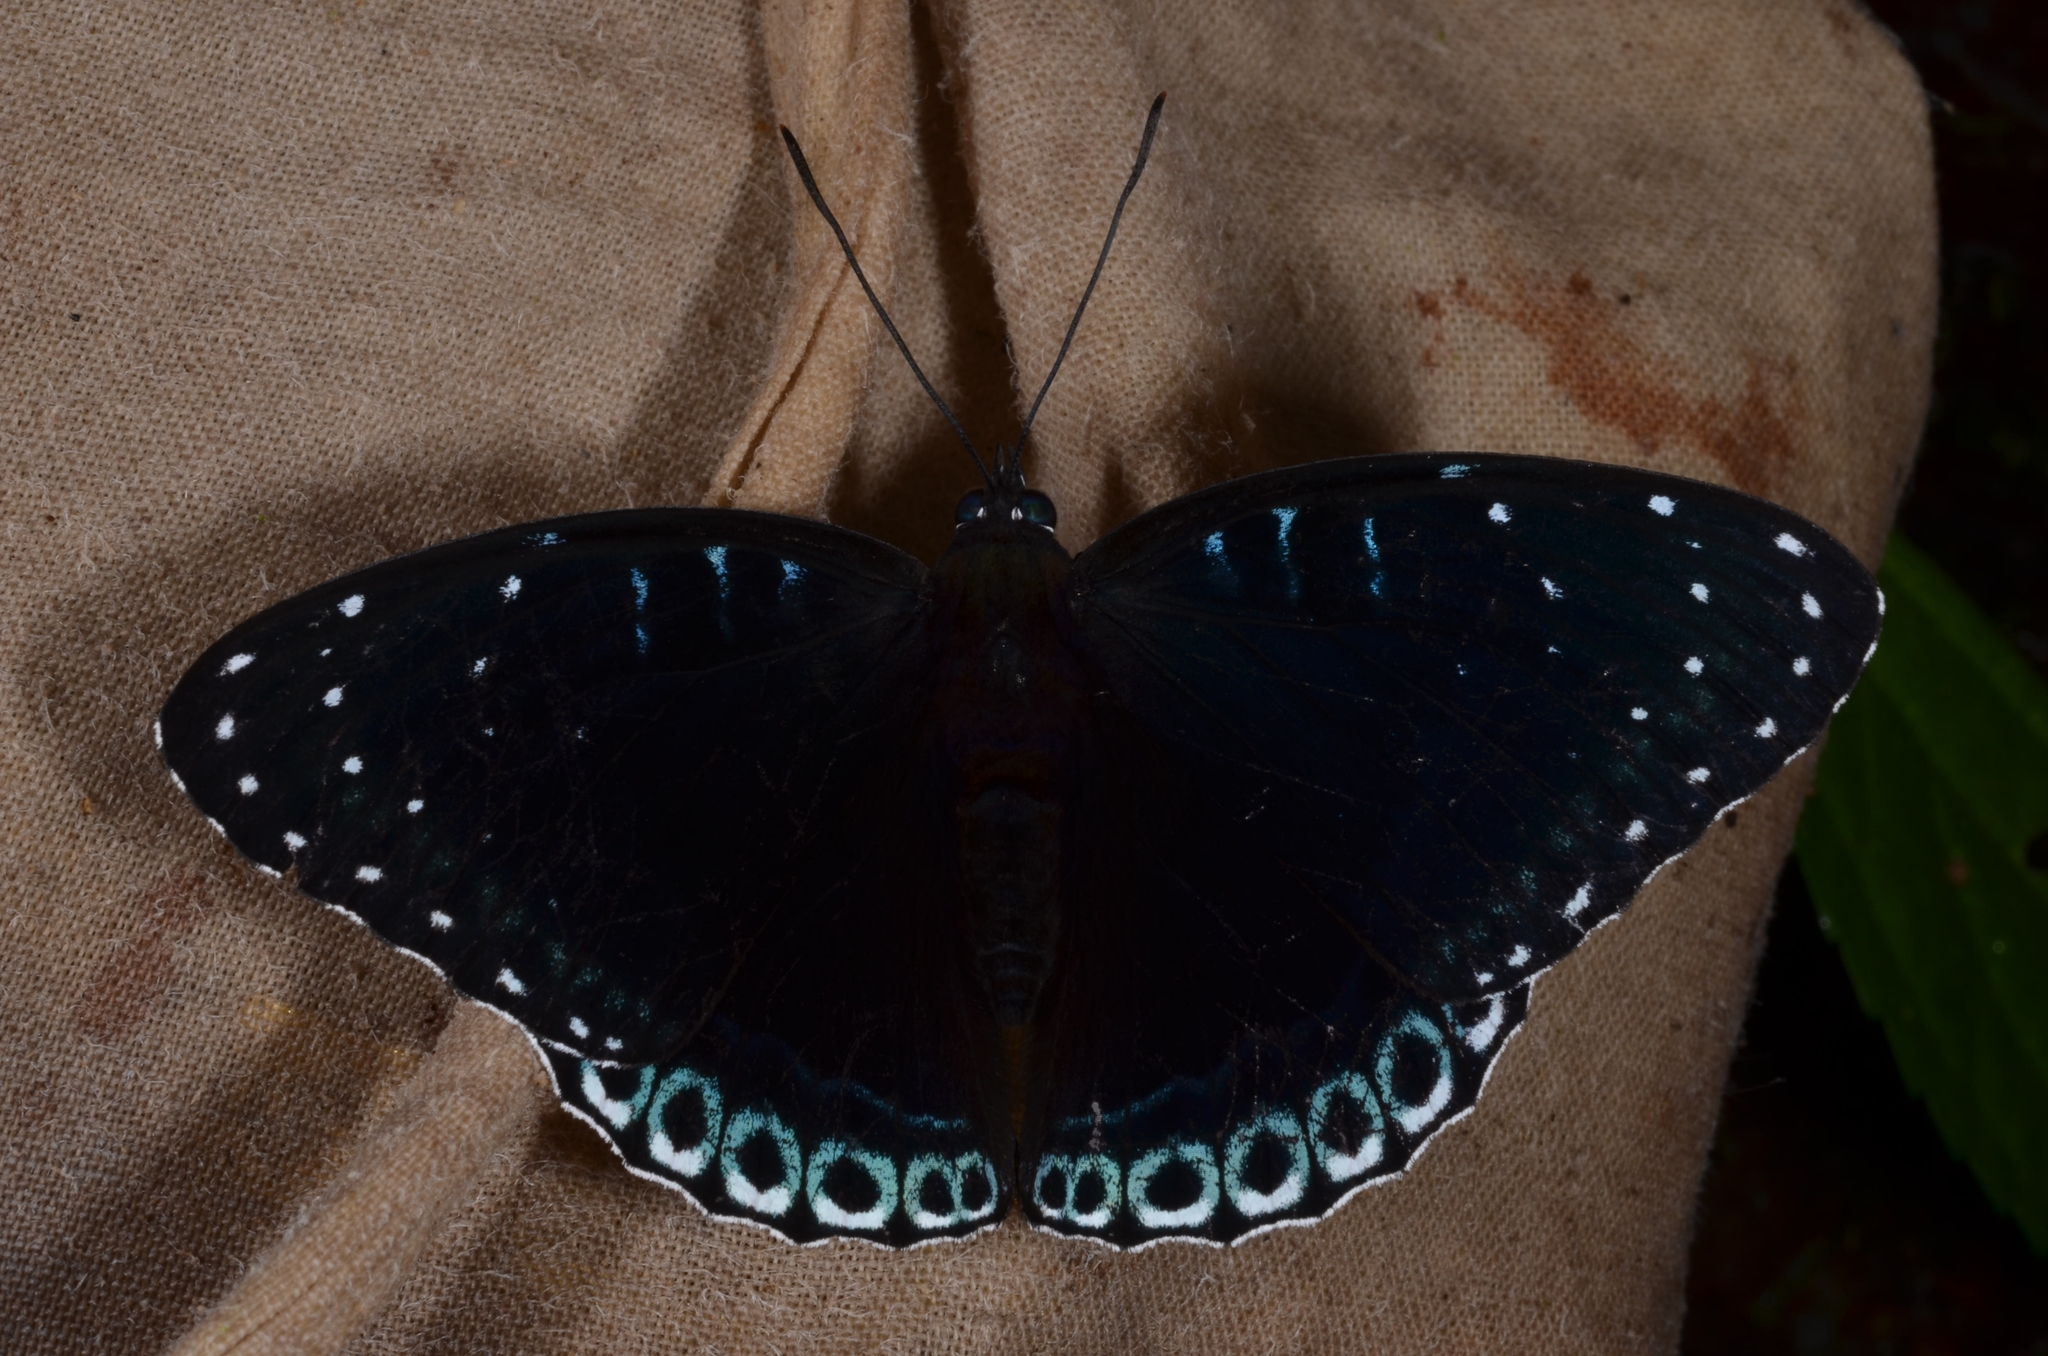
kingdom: Animalia
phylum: Arthropoda
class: Insecta
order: Lepidoptera
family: Nymphalidae
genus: Stibochiona
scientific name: Stibochiona nicea
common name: Popinjay
